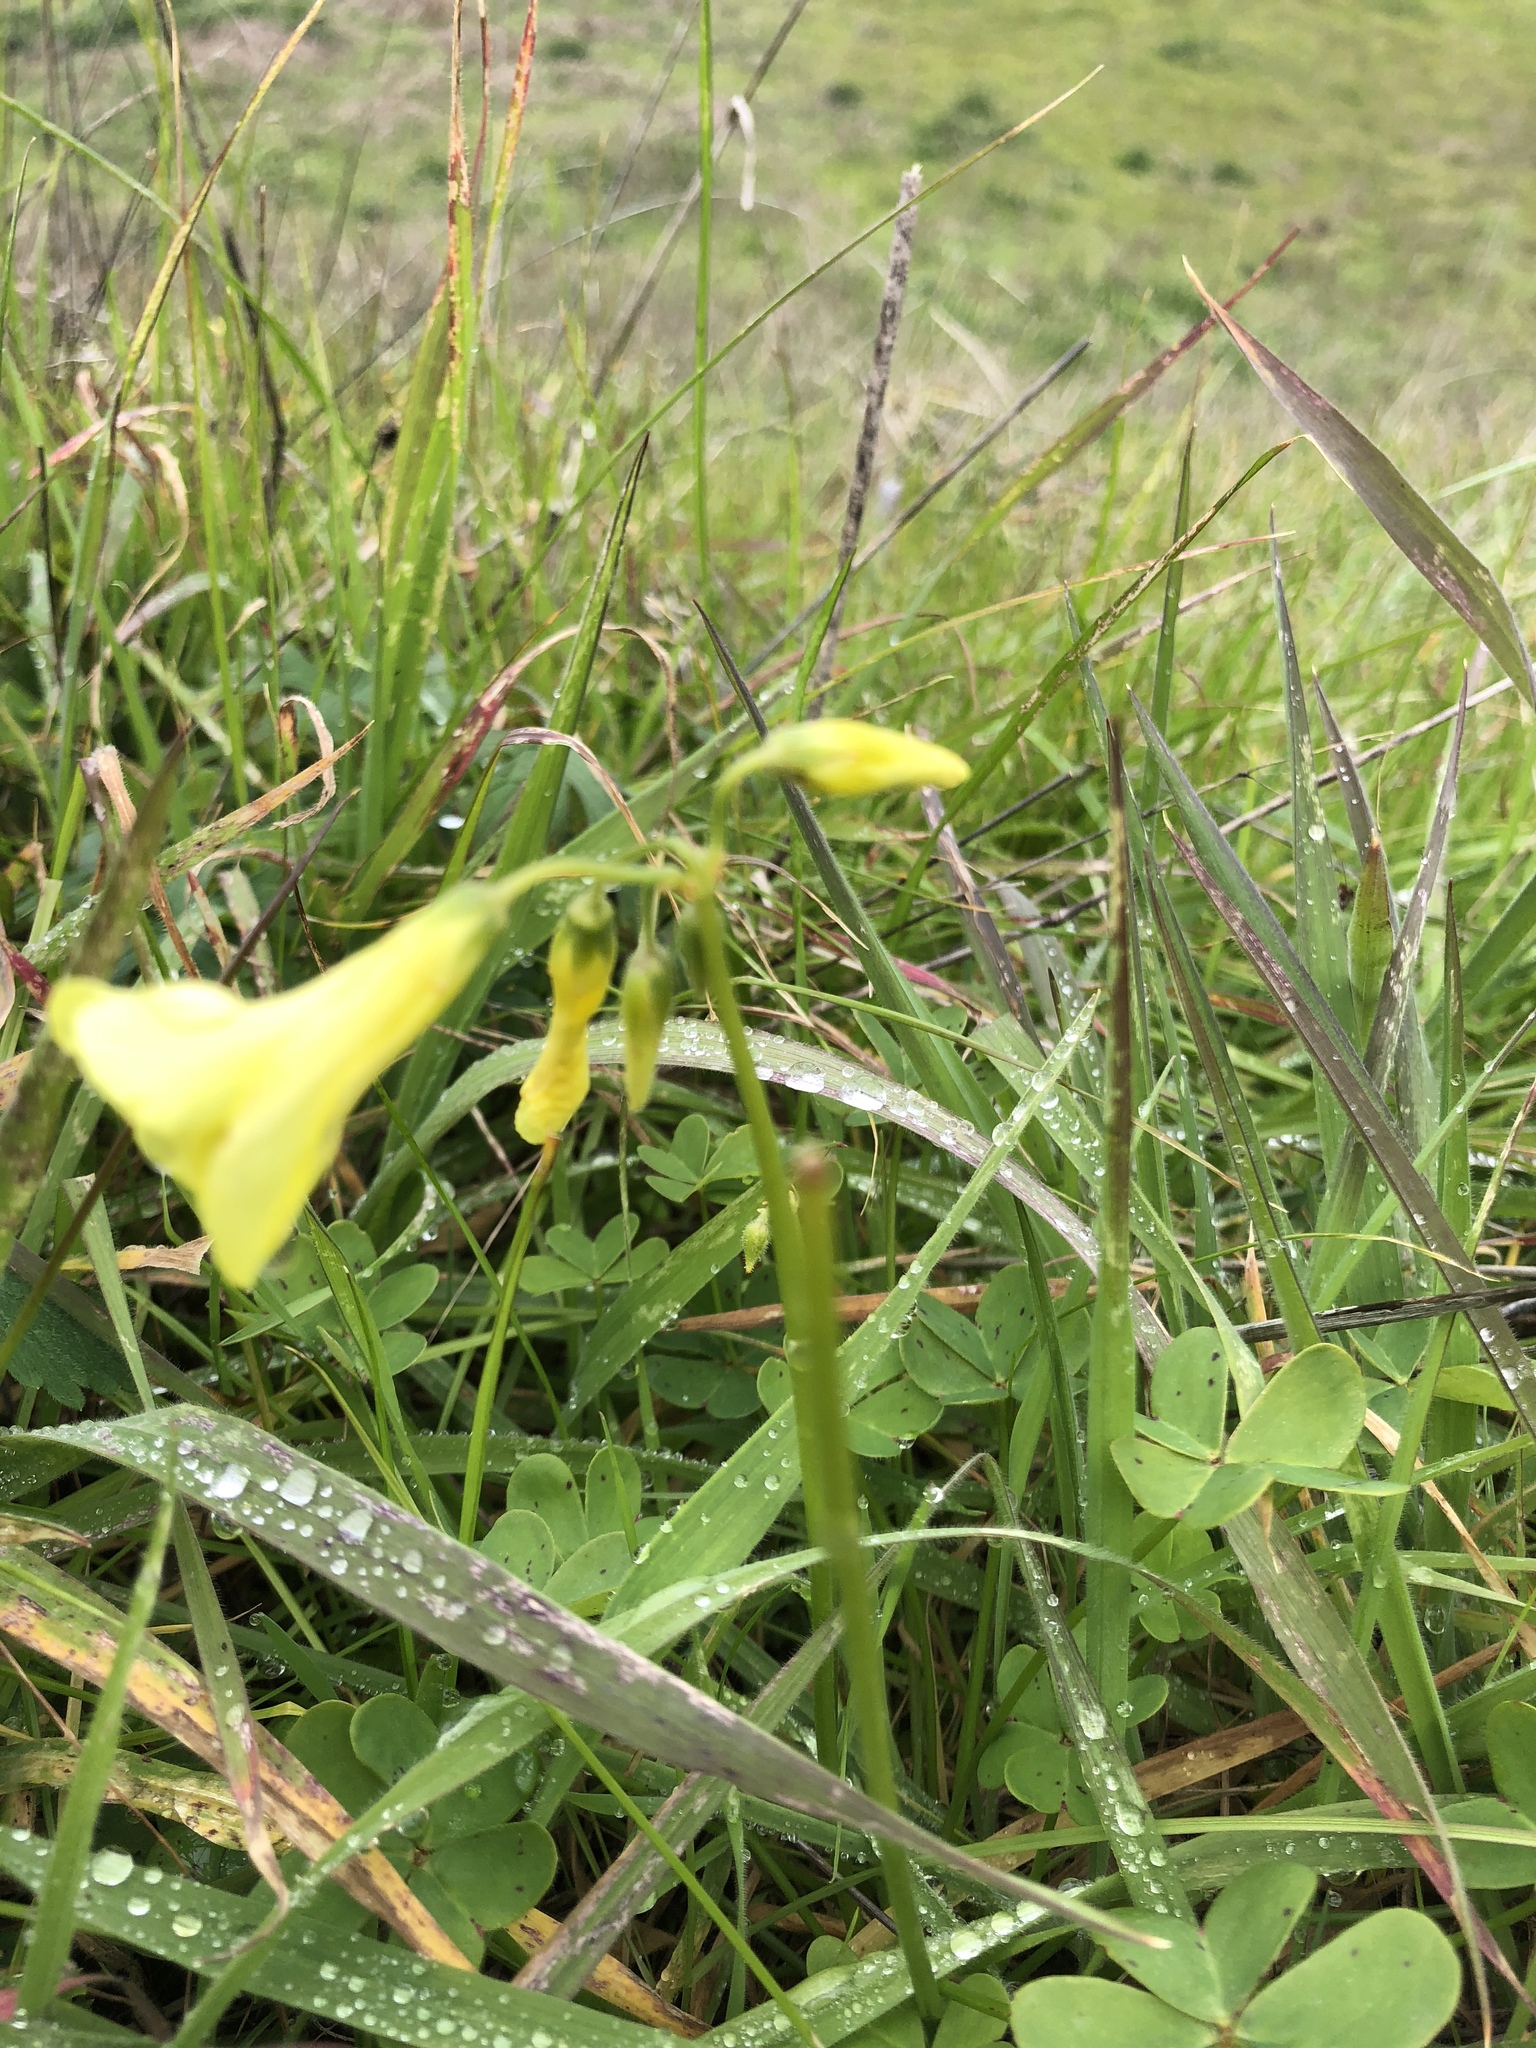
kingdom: Plantae
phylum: Tracheophyta
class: Magnoliopsida
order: Oxalidales
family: Oxalidaceae
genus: Oxalis
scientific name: Oxalis pes-caprae
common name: Bermuda-buttercup
